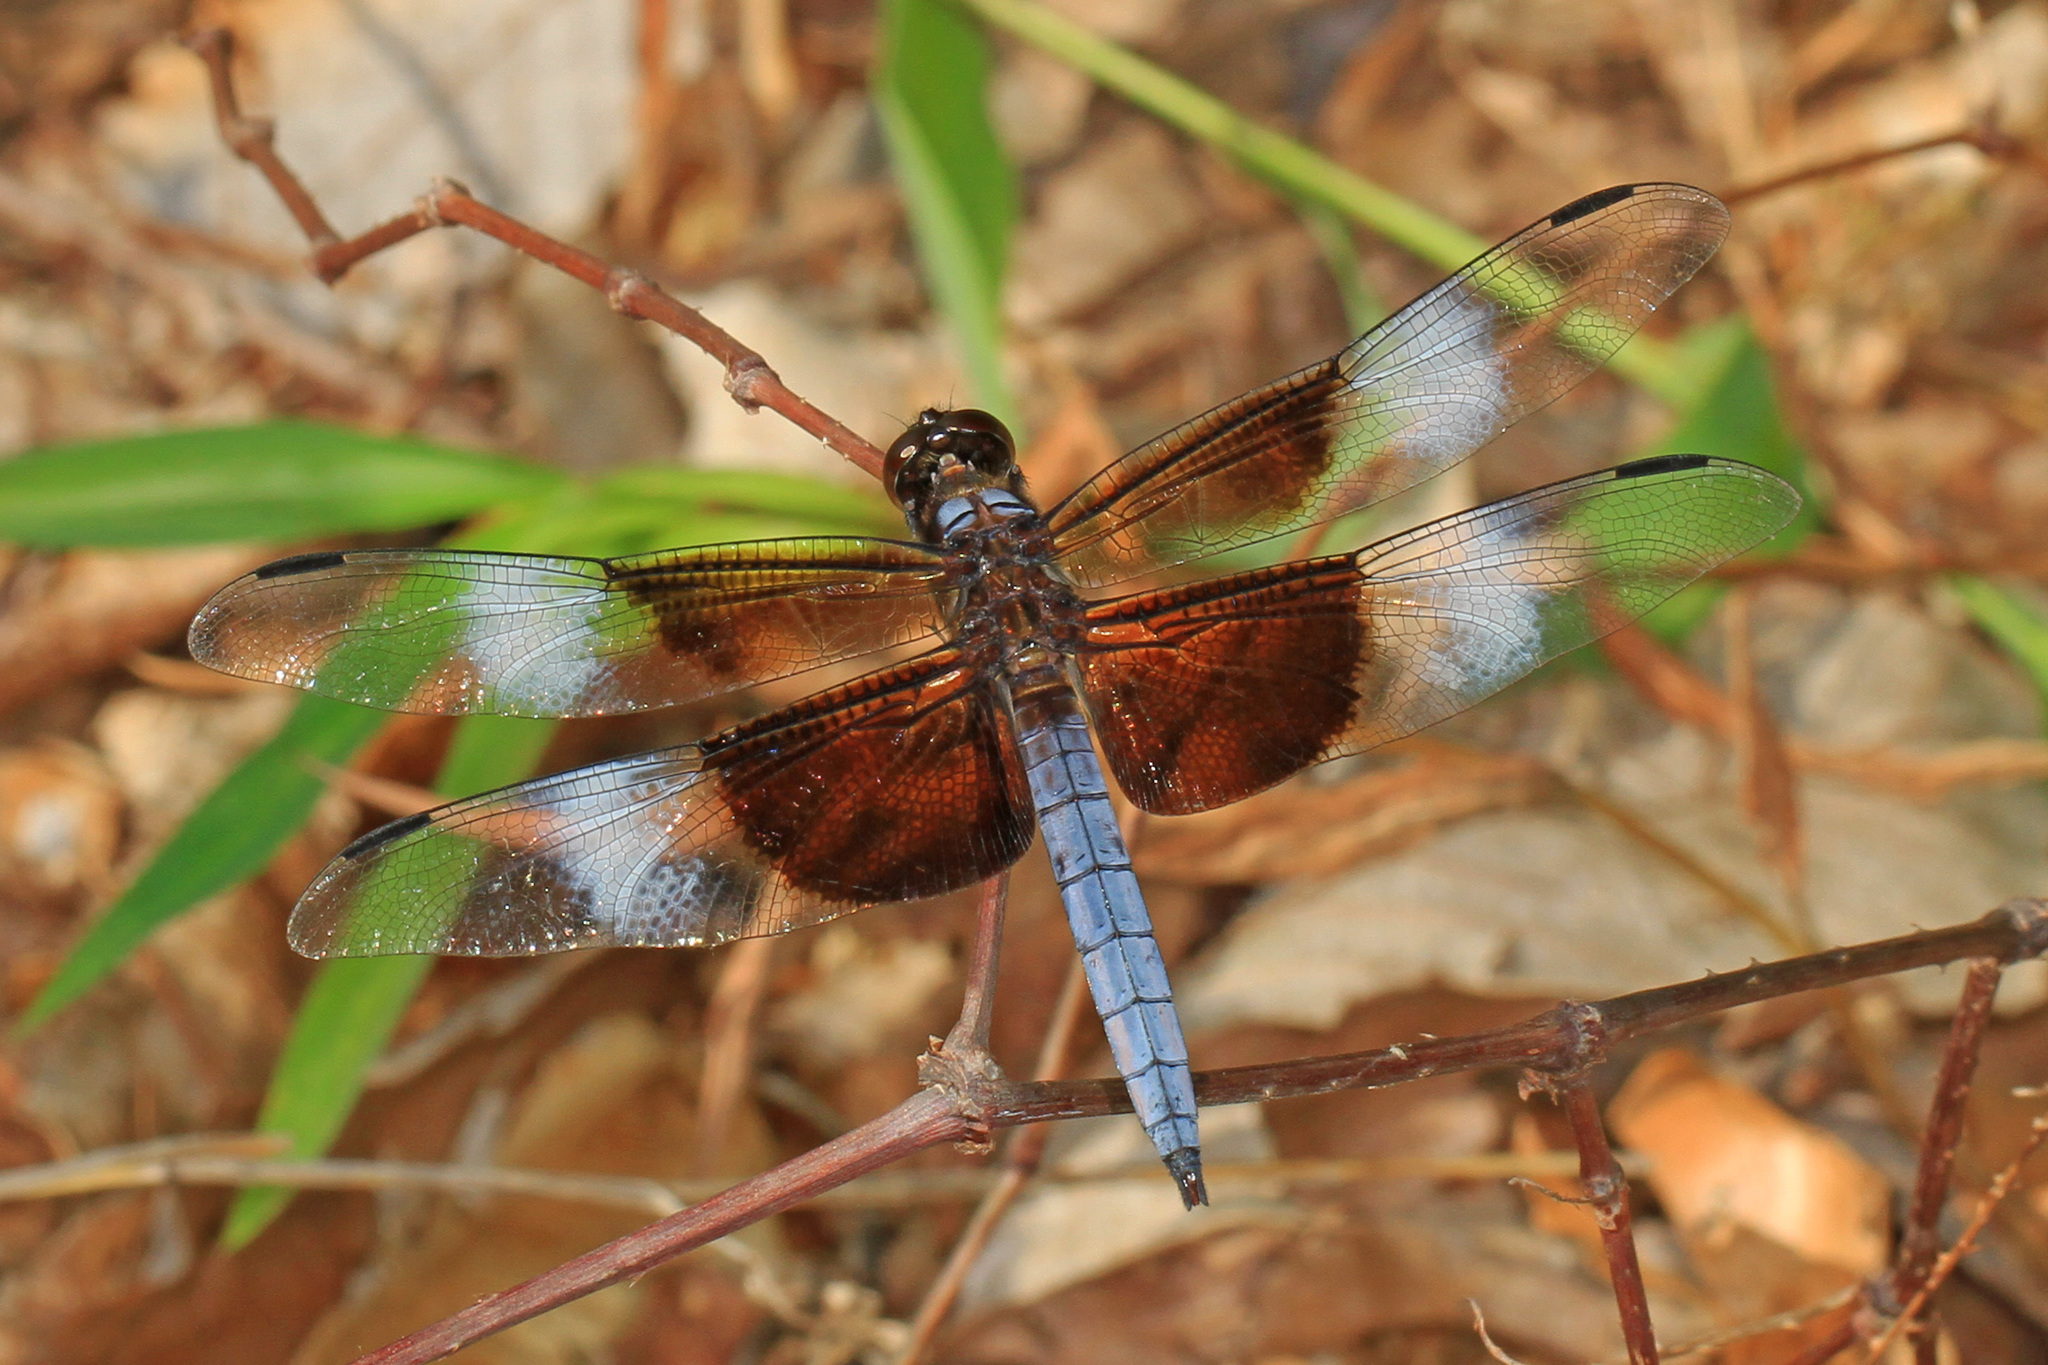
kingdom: Animalia
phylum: Arthropoda
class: Insecta
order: Odonata
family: Libellulidae
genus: Libellula
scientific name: Libellula luctuosa
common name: Widow skimmer
